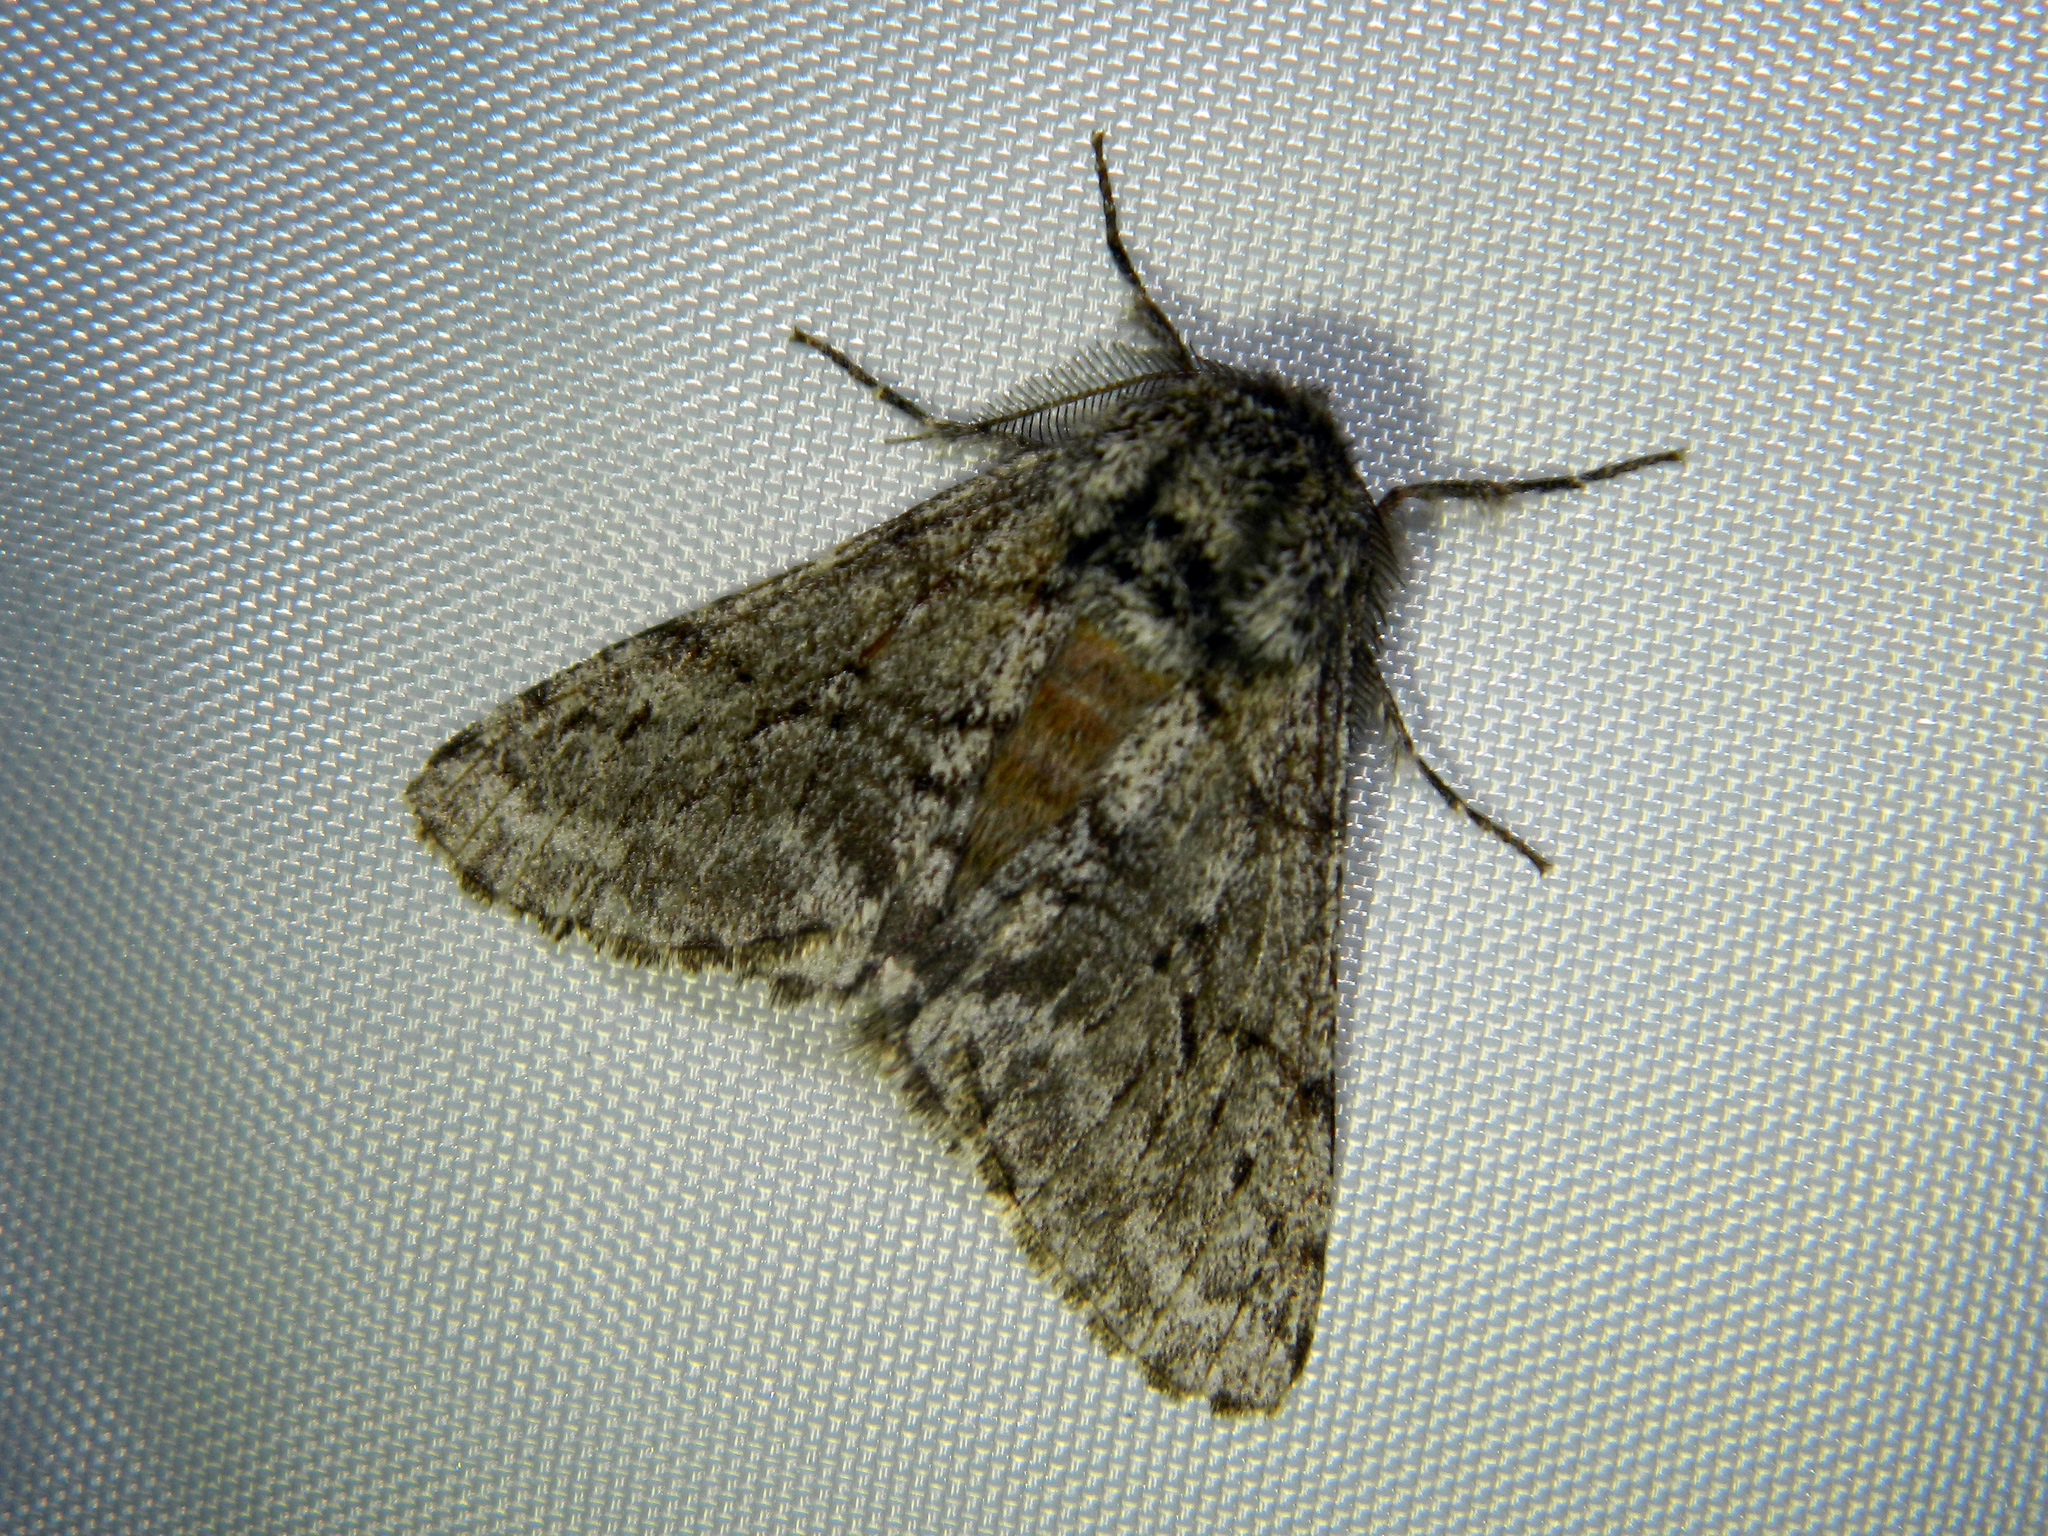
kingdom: Animalia
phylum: Arthropoda
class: Insecta
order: Lepidoptera
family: Geometridae
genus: Lycia
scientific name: Lycia ursaria
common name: Stout spanworm
